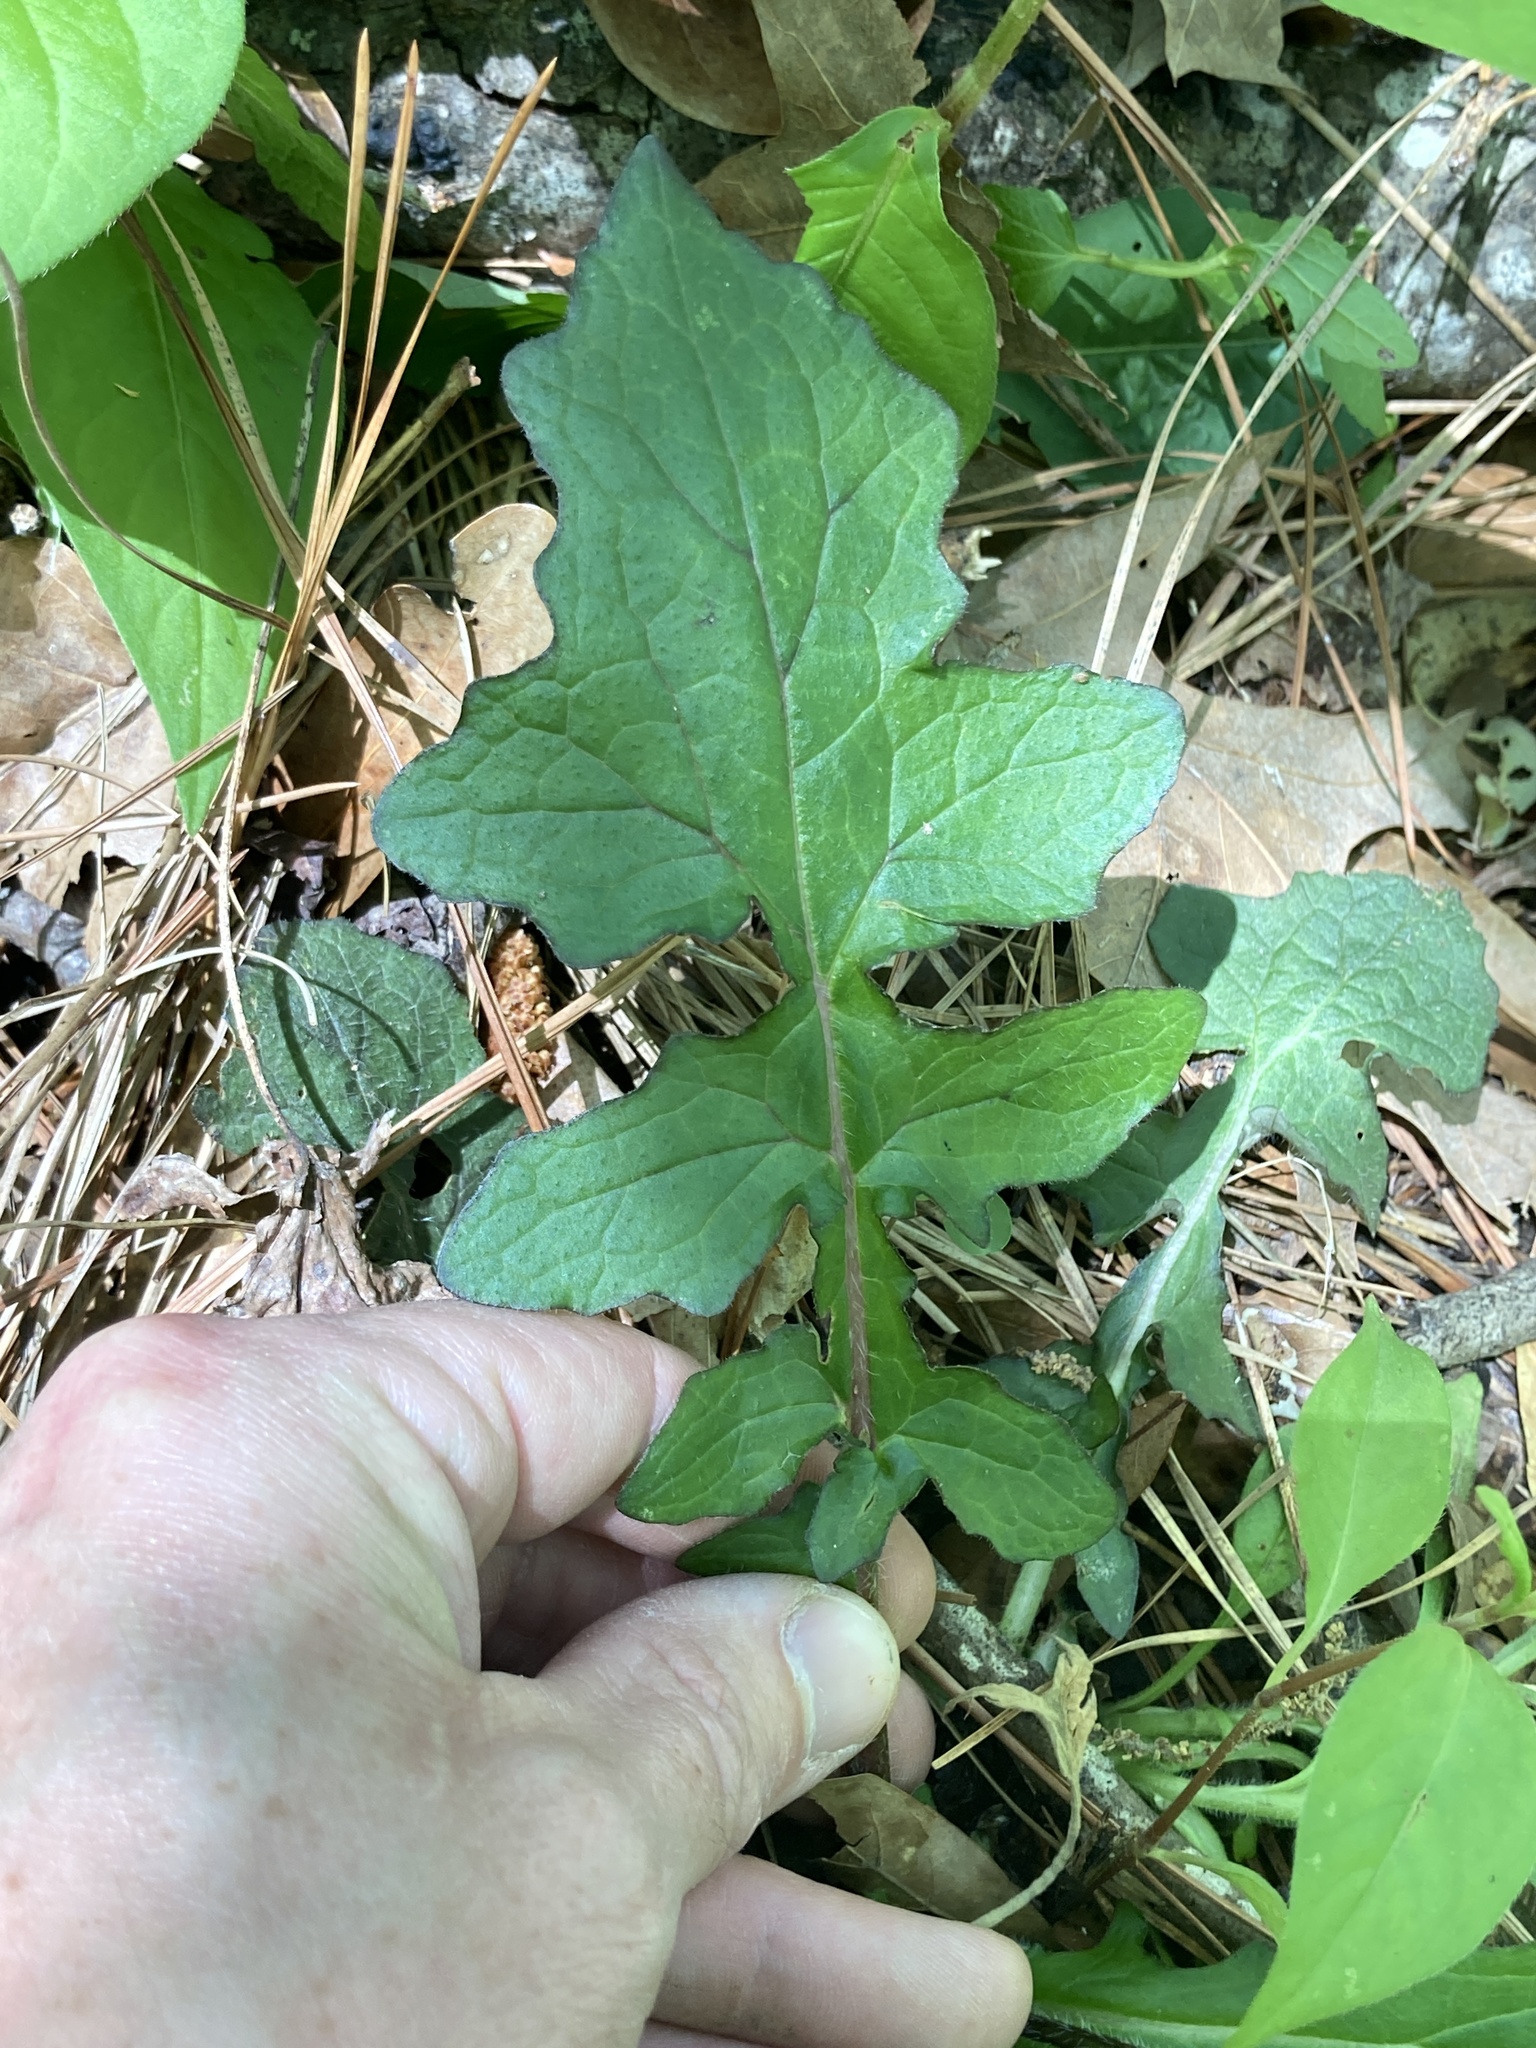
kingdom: Plantae
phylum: Tracheophyta
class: Magnoliopsida
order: Lamiales
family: Lamiaceae
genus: Salvia
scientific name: Salvia lyrata
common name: Cancerweed
